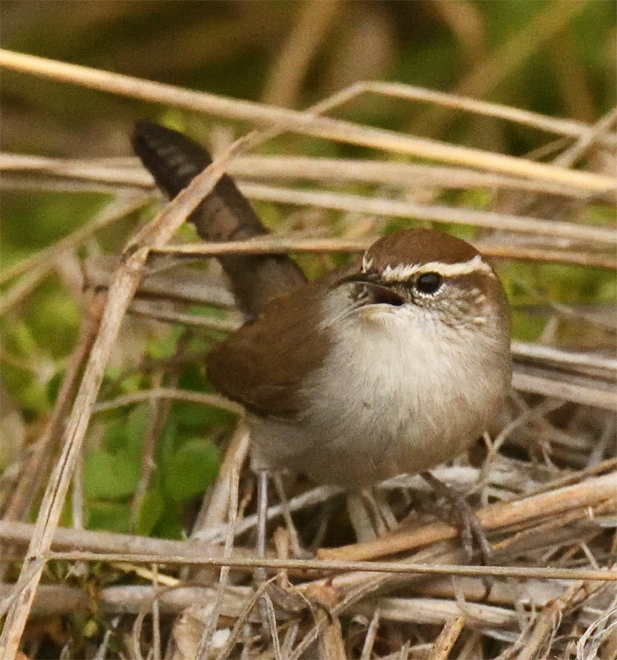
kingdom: Animalia
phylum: Chordata
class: Aves
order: Passeriformes
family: Troglodytidae
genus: Thryomanes
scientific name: Thryomanes bewickii
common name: Bewick's wren
